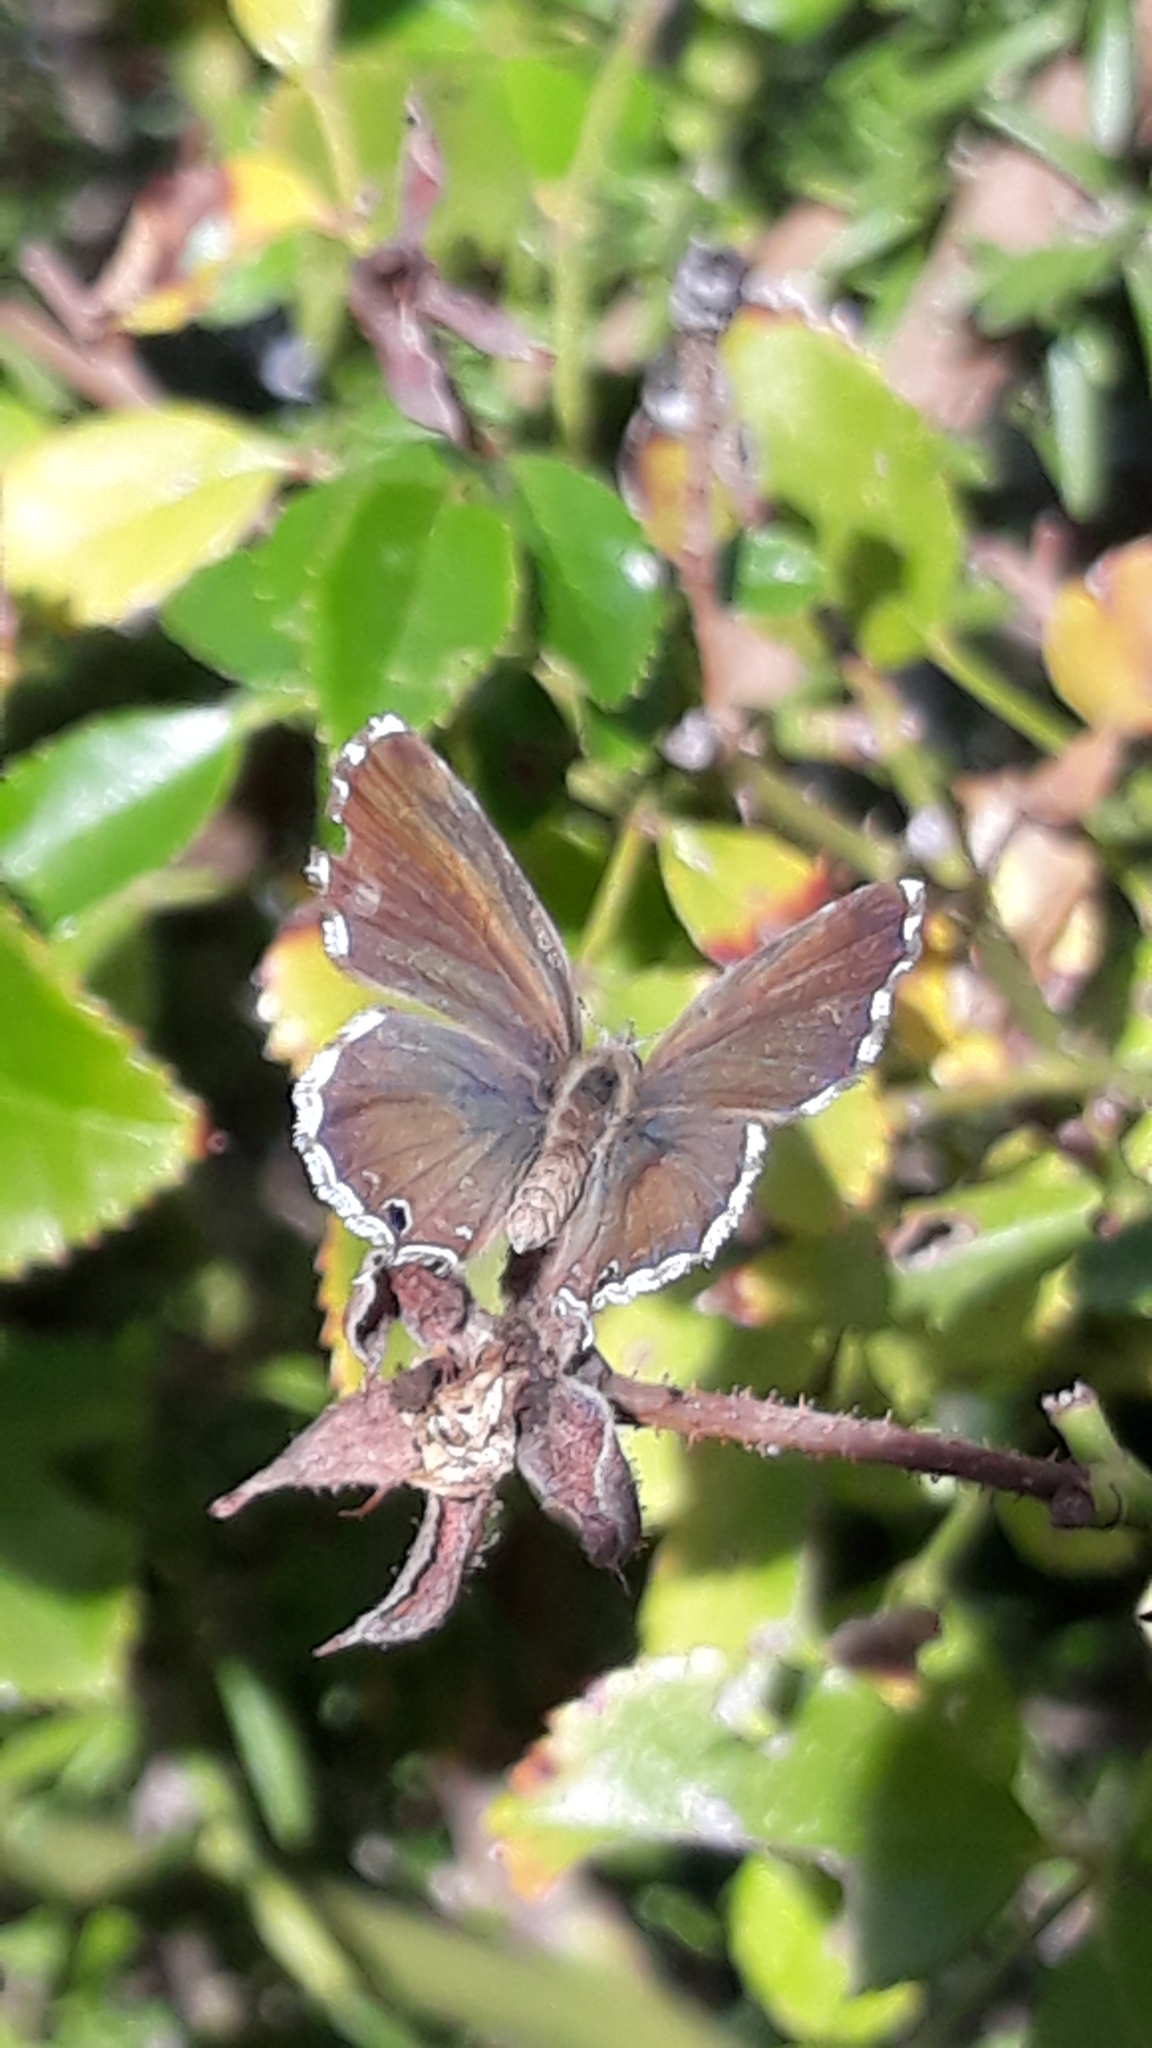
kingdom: Animalia
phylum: Arthropoda
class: Insecta
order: Lepidoptera
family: Lycaenidae
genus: Cacyreus
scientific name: Cacyreus marshalli
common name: Geranium bronze
